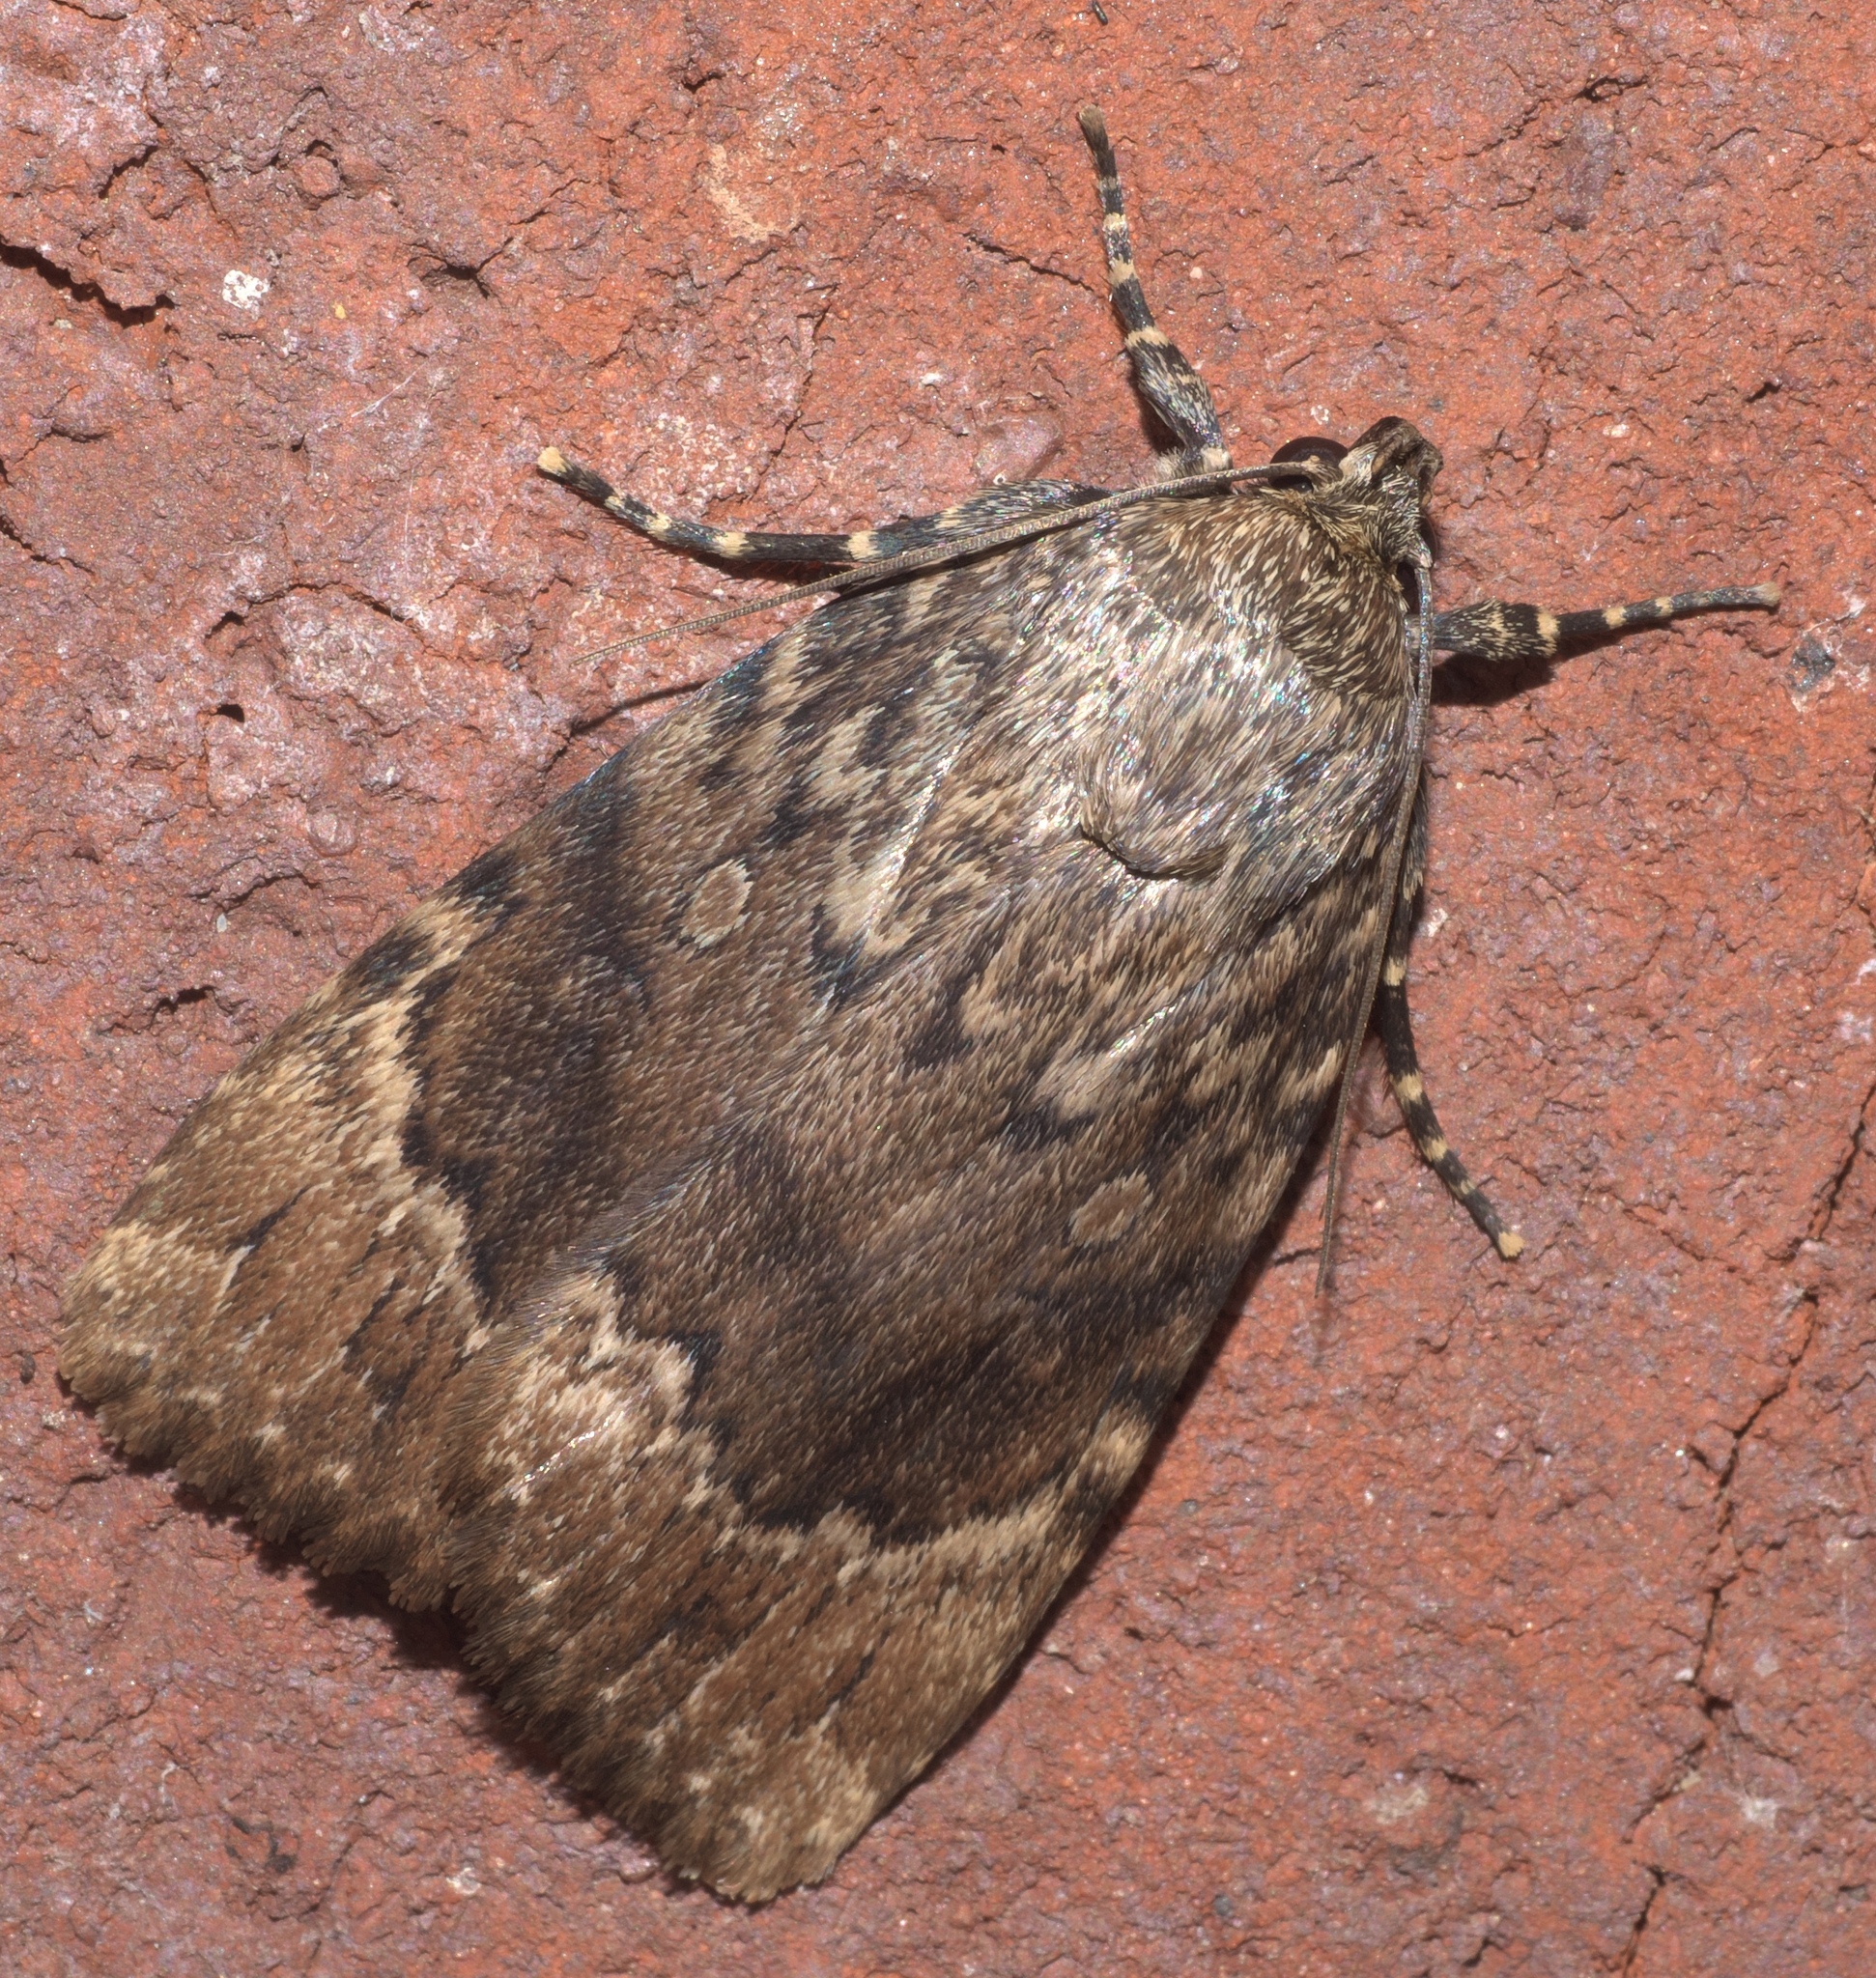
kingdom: Animalia
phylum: Arthropoda
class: Insecta
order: Lepidoptera
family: Noctuidae
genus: Amphipyra
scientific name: Amphipyra pyramidoides
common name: American copper underwing
